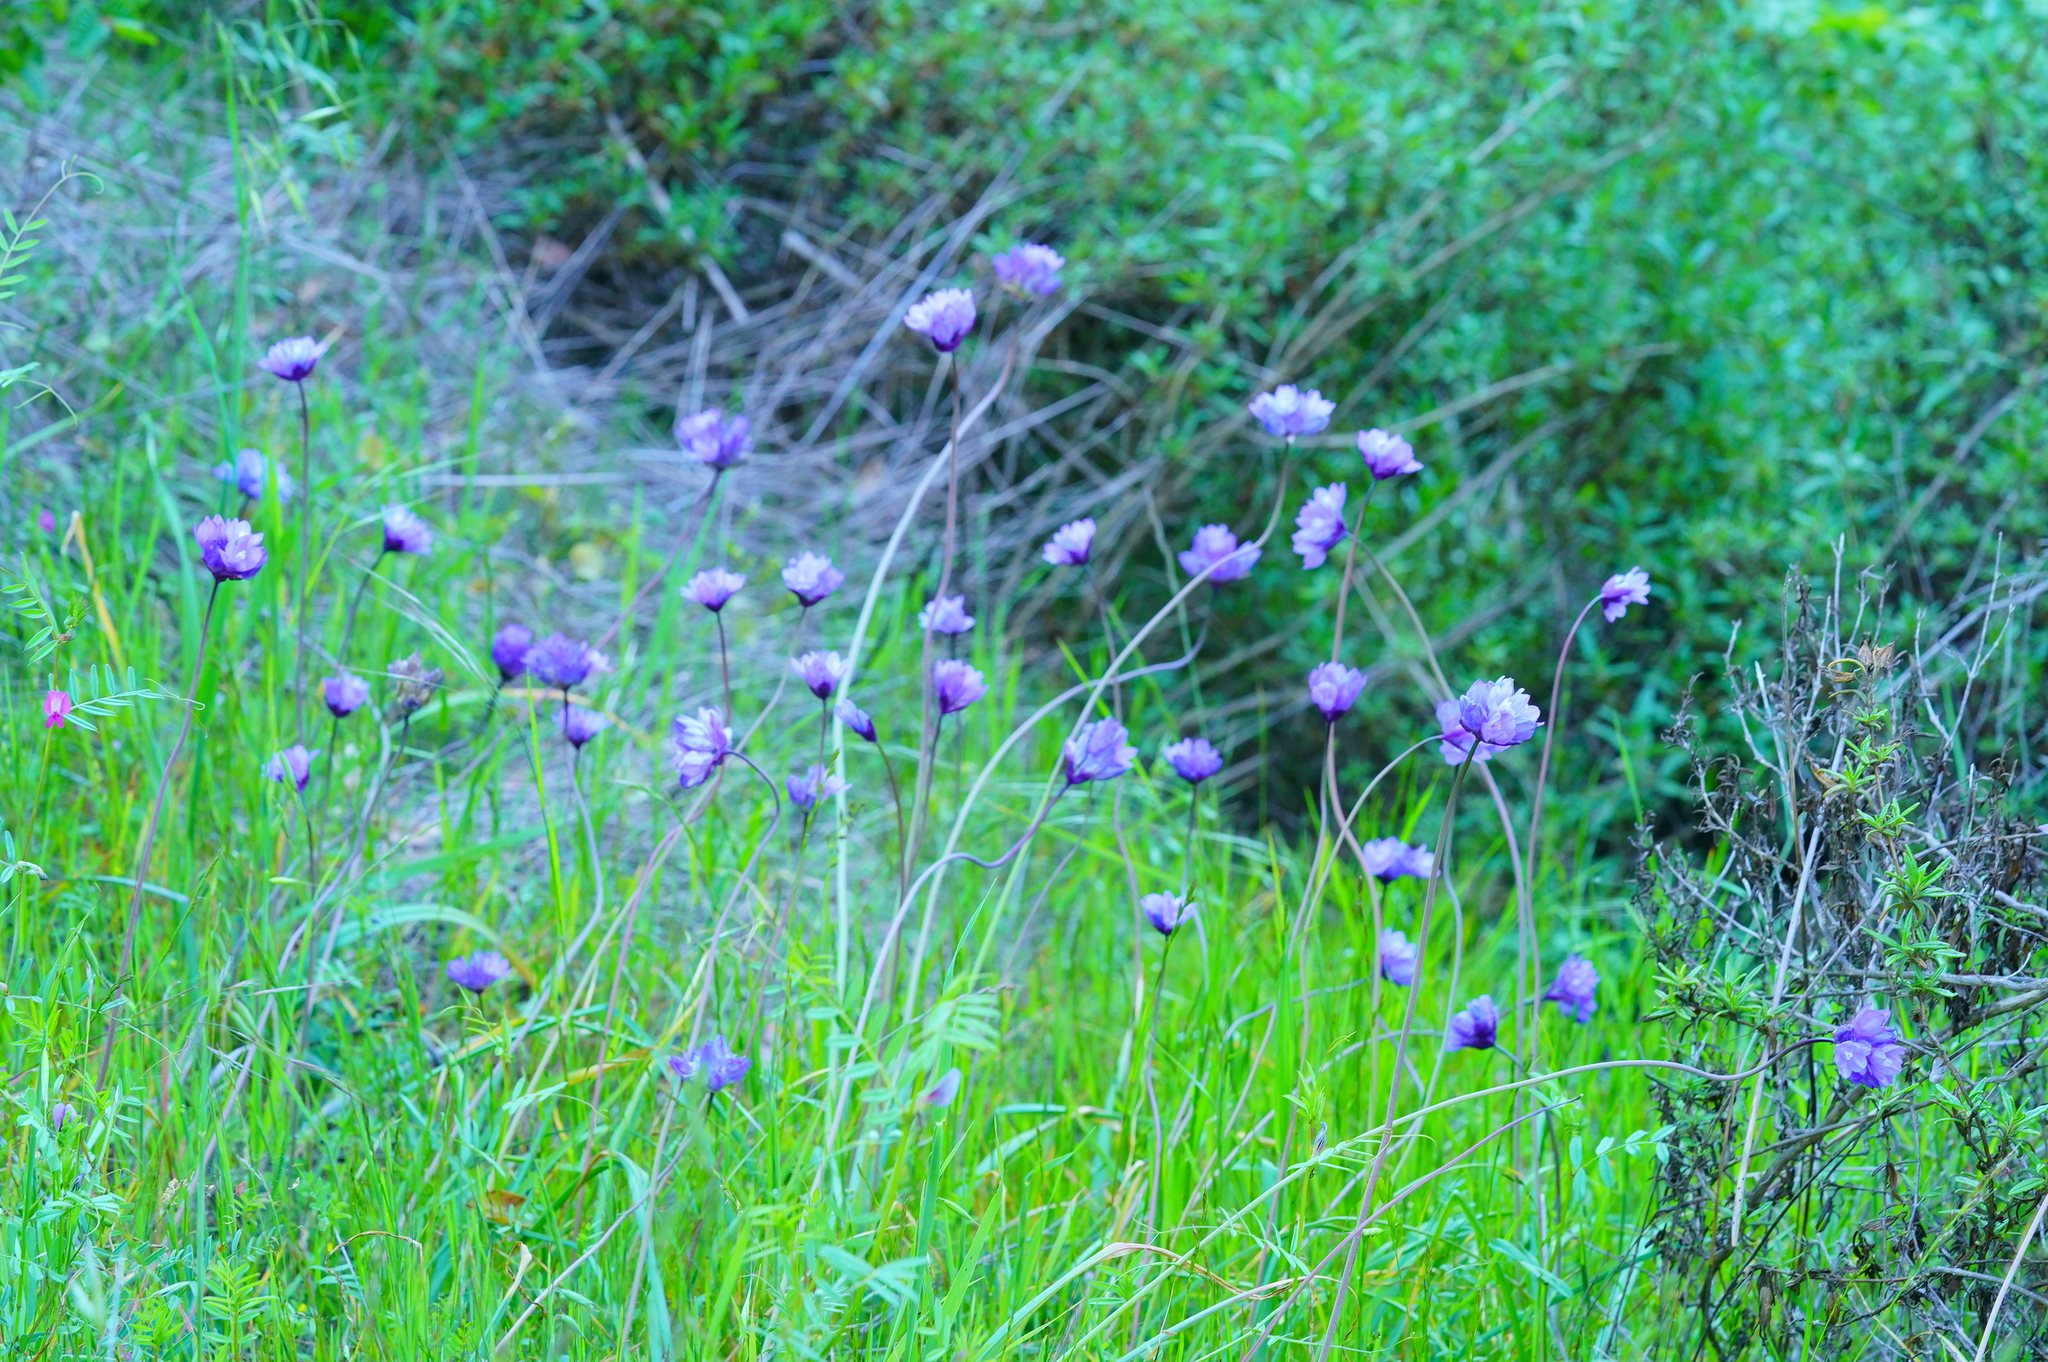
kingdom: Plantae
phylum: Tracheophyta
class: Liliopsida
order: Asparagales
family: Asparagaceae
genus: Dipterostemon
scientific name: Dipterostemon capitatus
